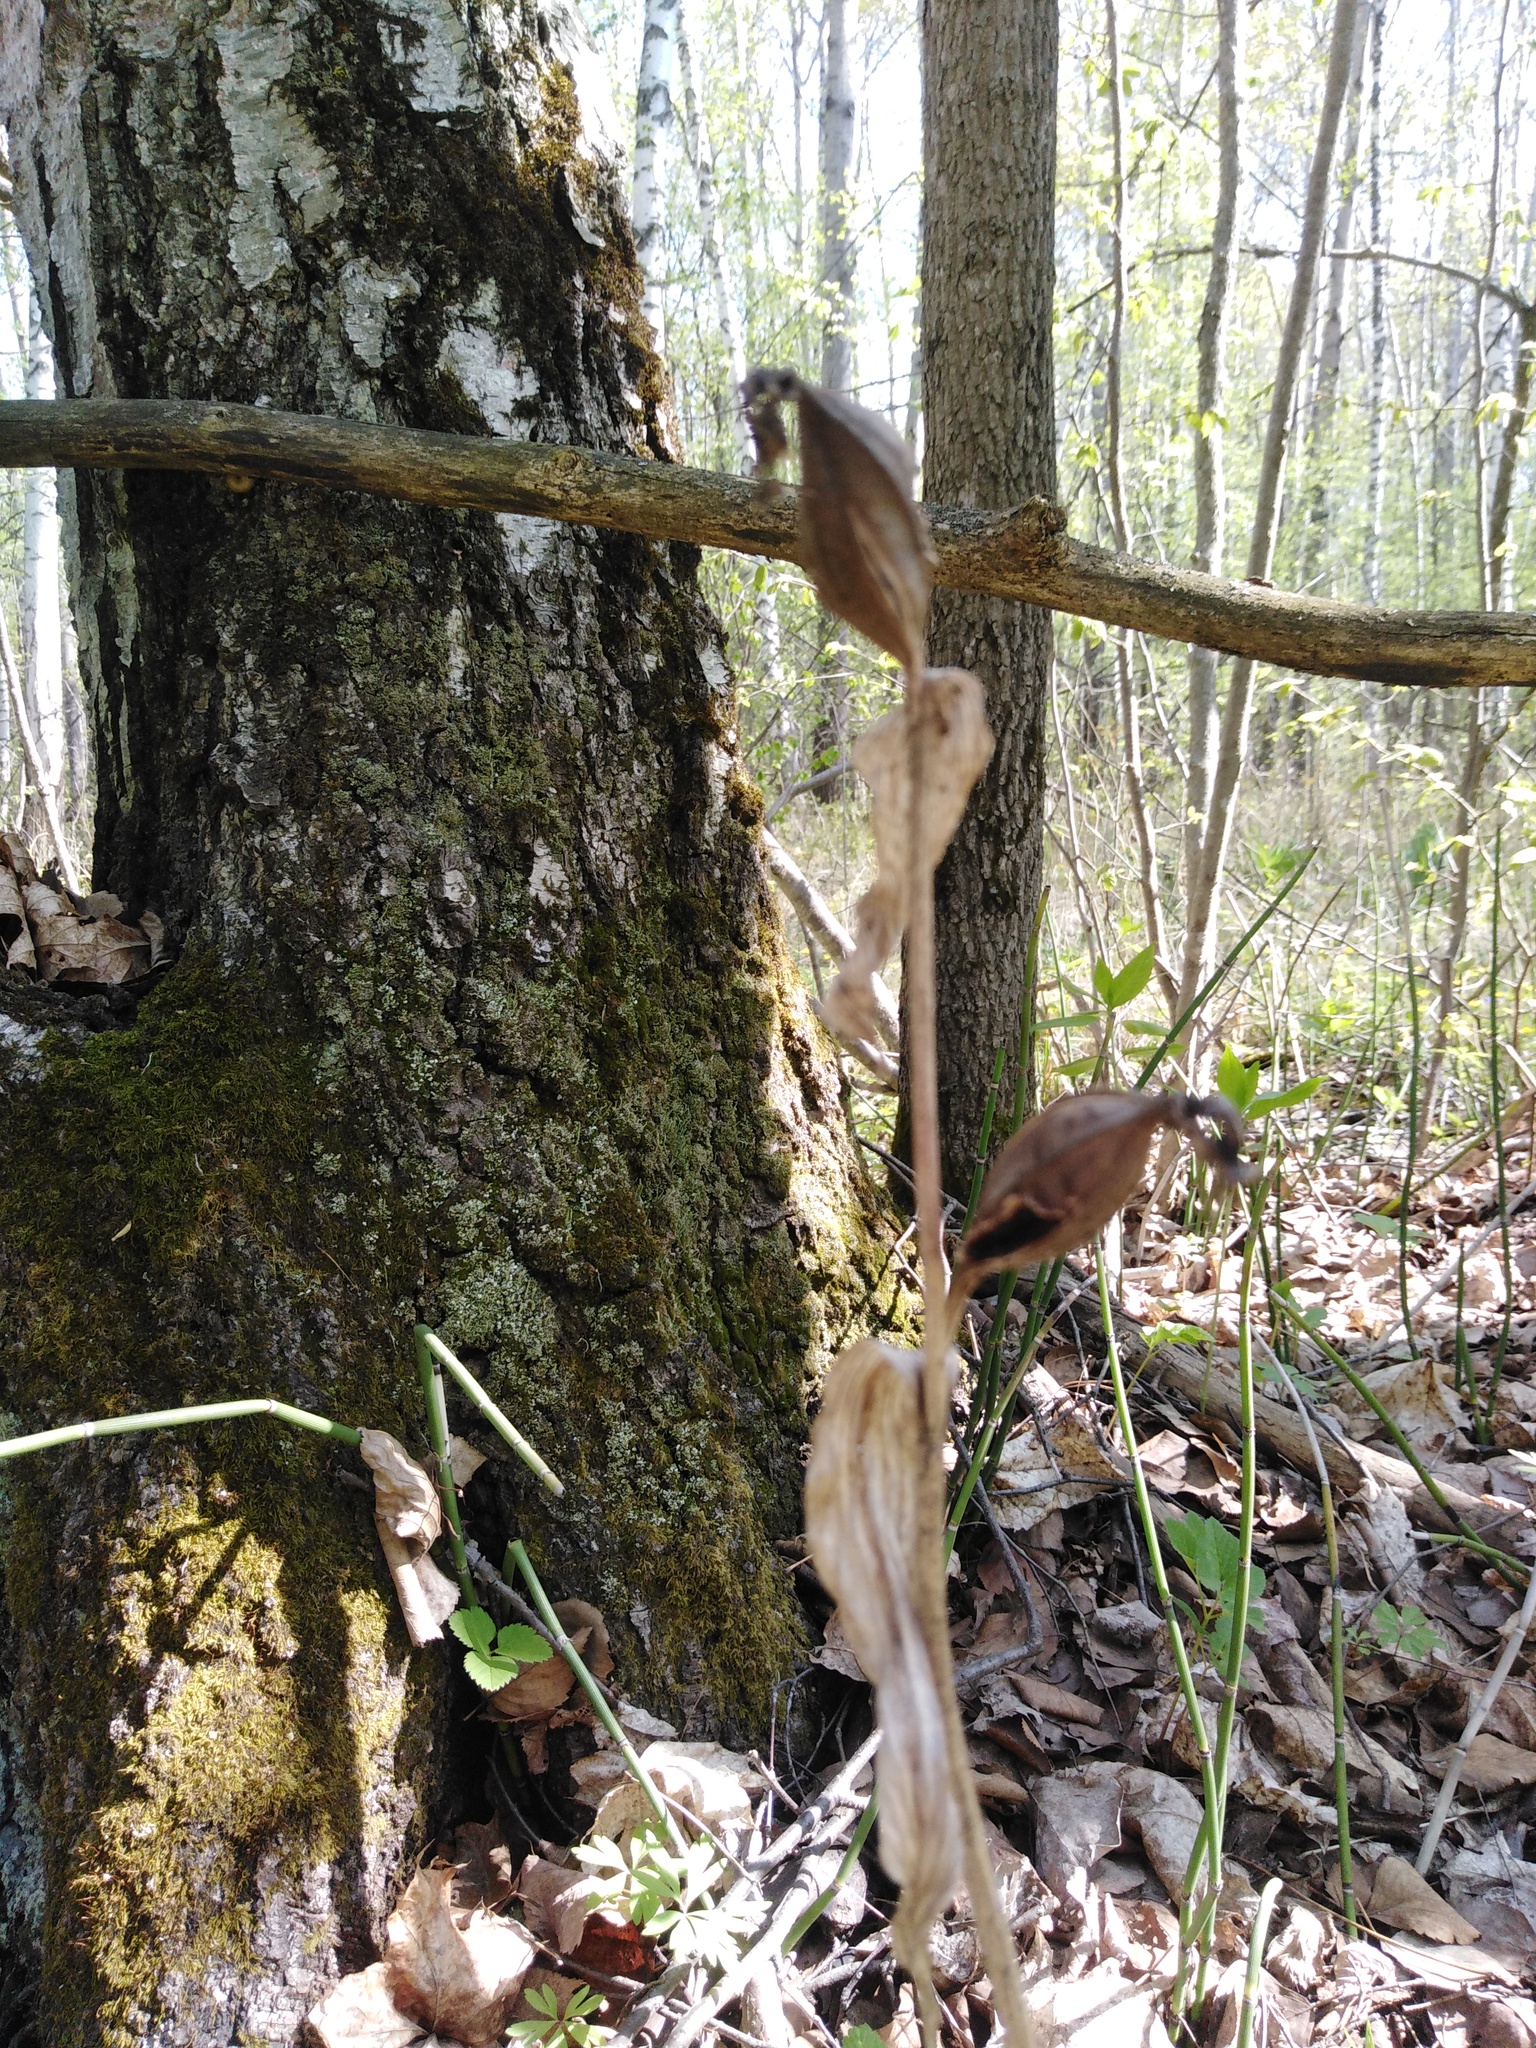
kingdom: Plantae
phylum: Tracheophyta
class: Magnoliopsida
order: Malpighiales
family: Violaceae
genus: Viola
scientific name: Viola mirabilis
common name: Wonder violet
